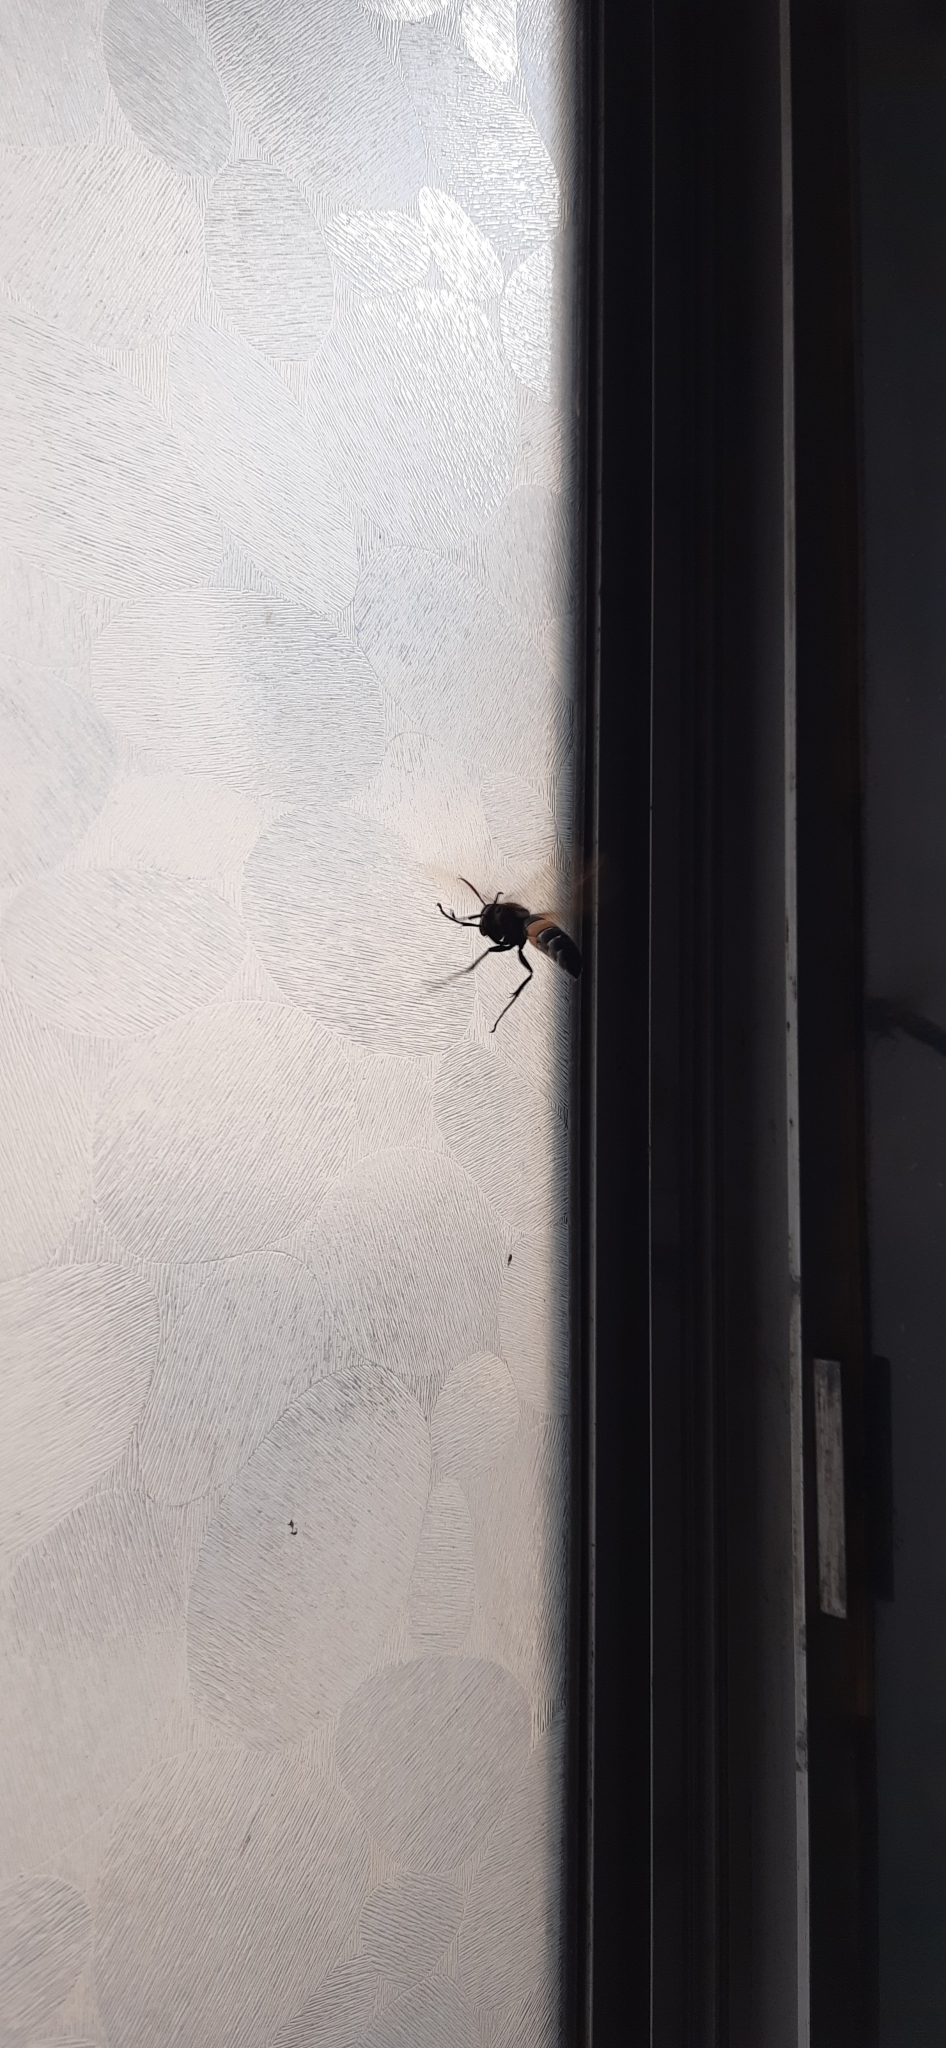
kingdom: Animalia
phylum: Arthropoda
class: Insecta
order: Hymenoptera
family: Vespidae
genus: Vespa
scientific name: Vespa tropica
